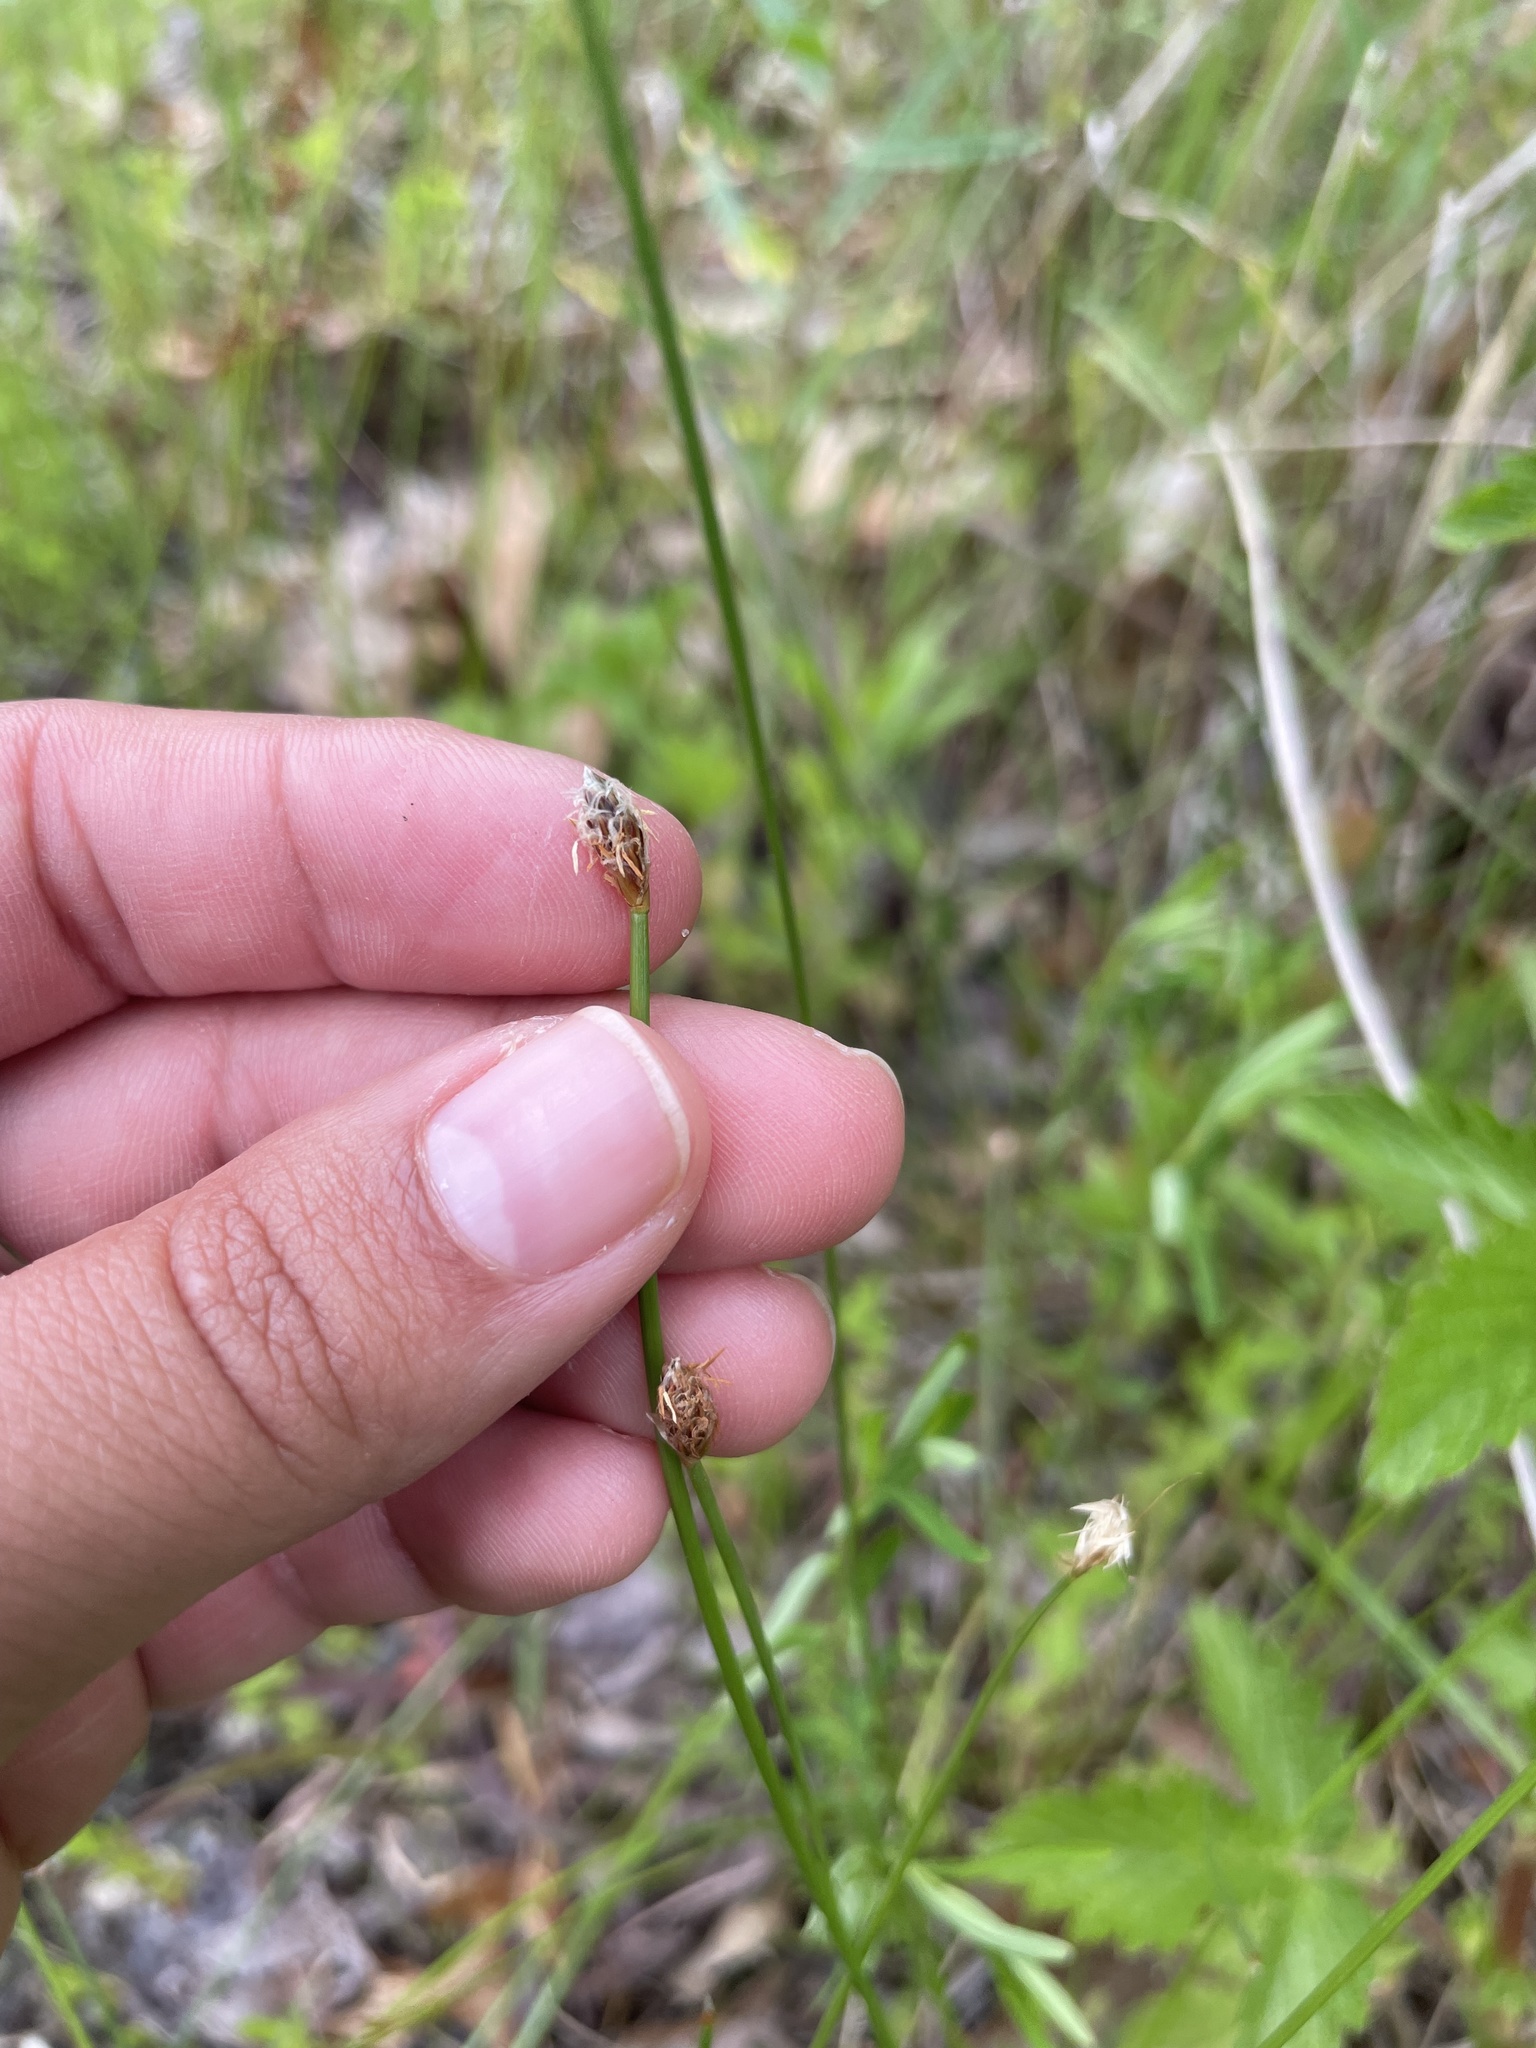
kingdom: Plantae
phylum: Tracheophyta
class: Liliopsida
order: Poales
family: Cyperaceae
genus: Eleocharis
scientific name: Eleocharis obtusa
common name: Blunt spikerush
